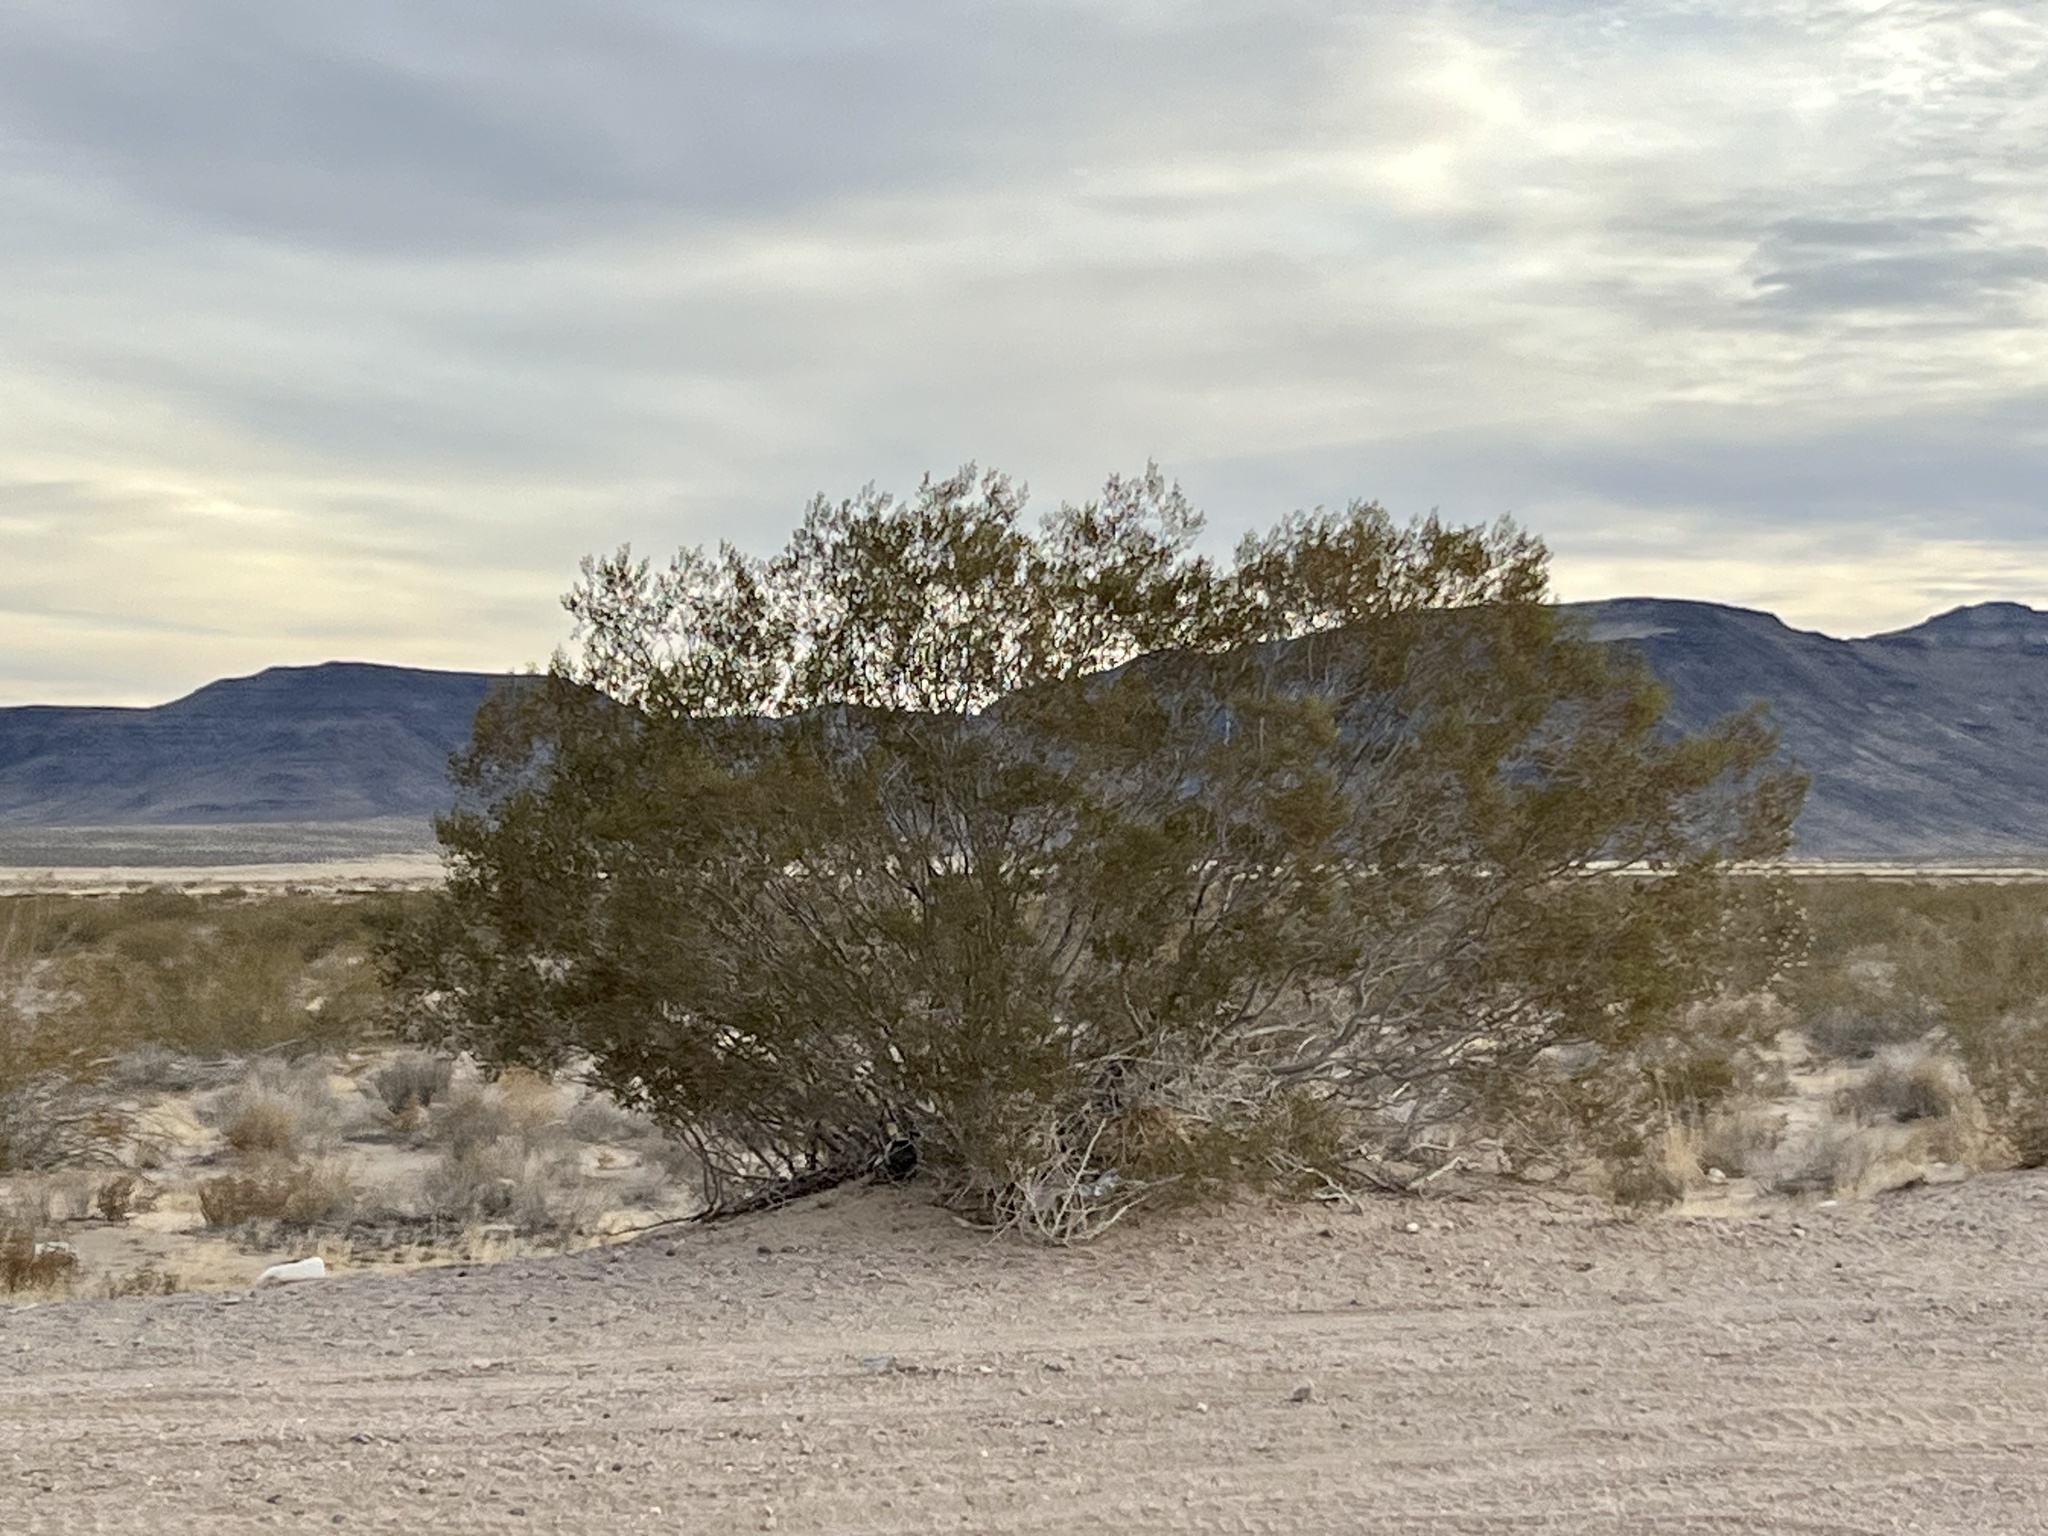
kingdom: Plantae
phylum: Tracheophyta
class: Magnoliopsida
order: Zygophyllales
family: Zygophyllaceae
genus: Larrea
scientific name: Larrea tridentata
